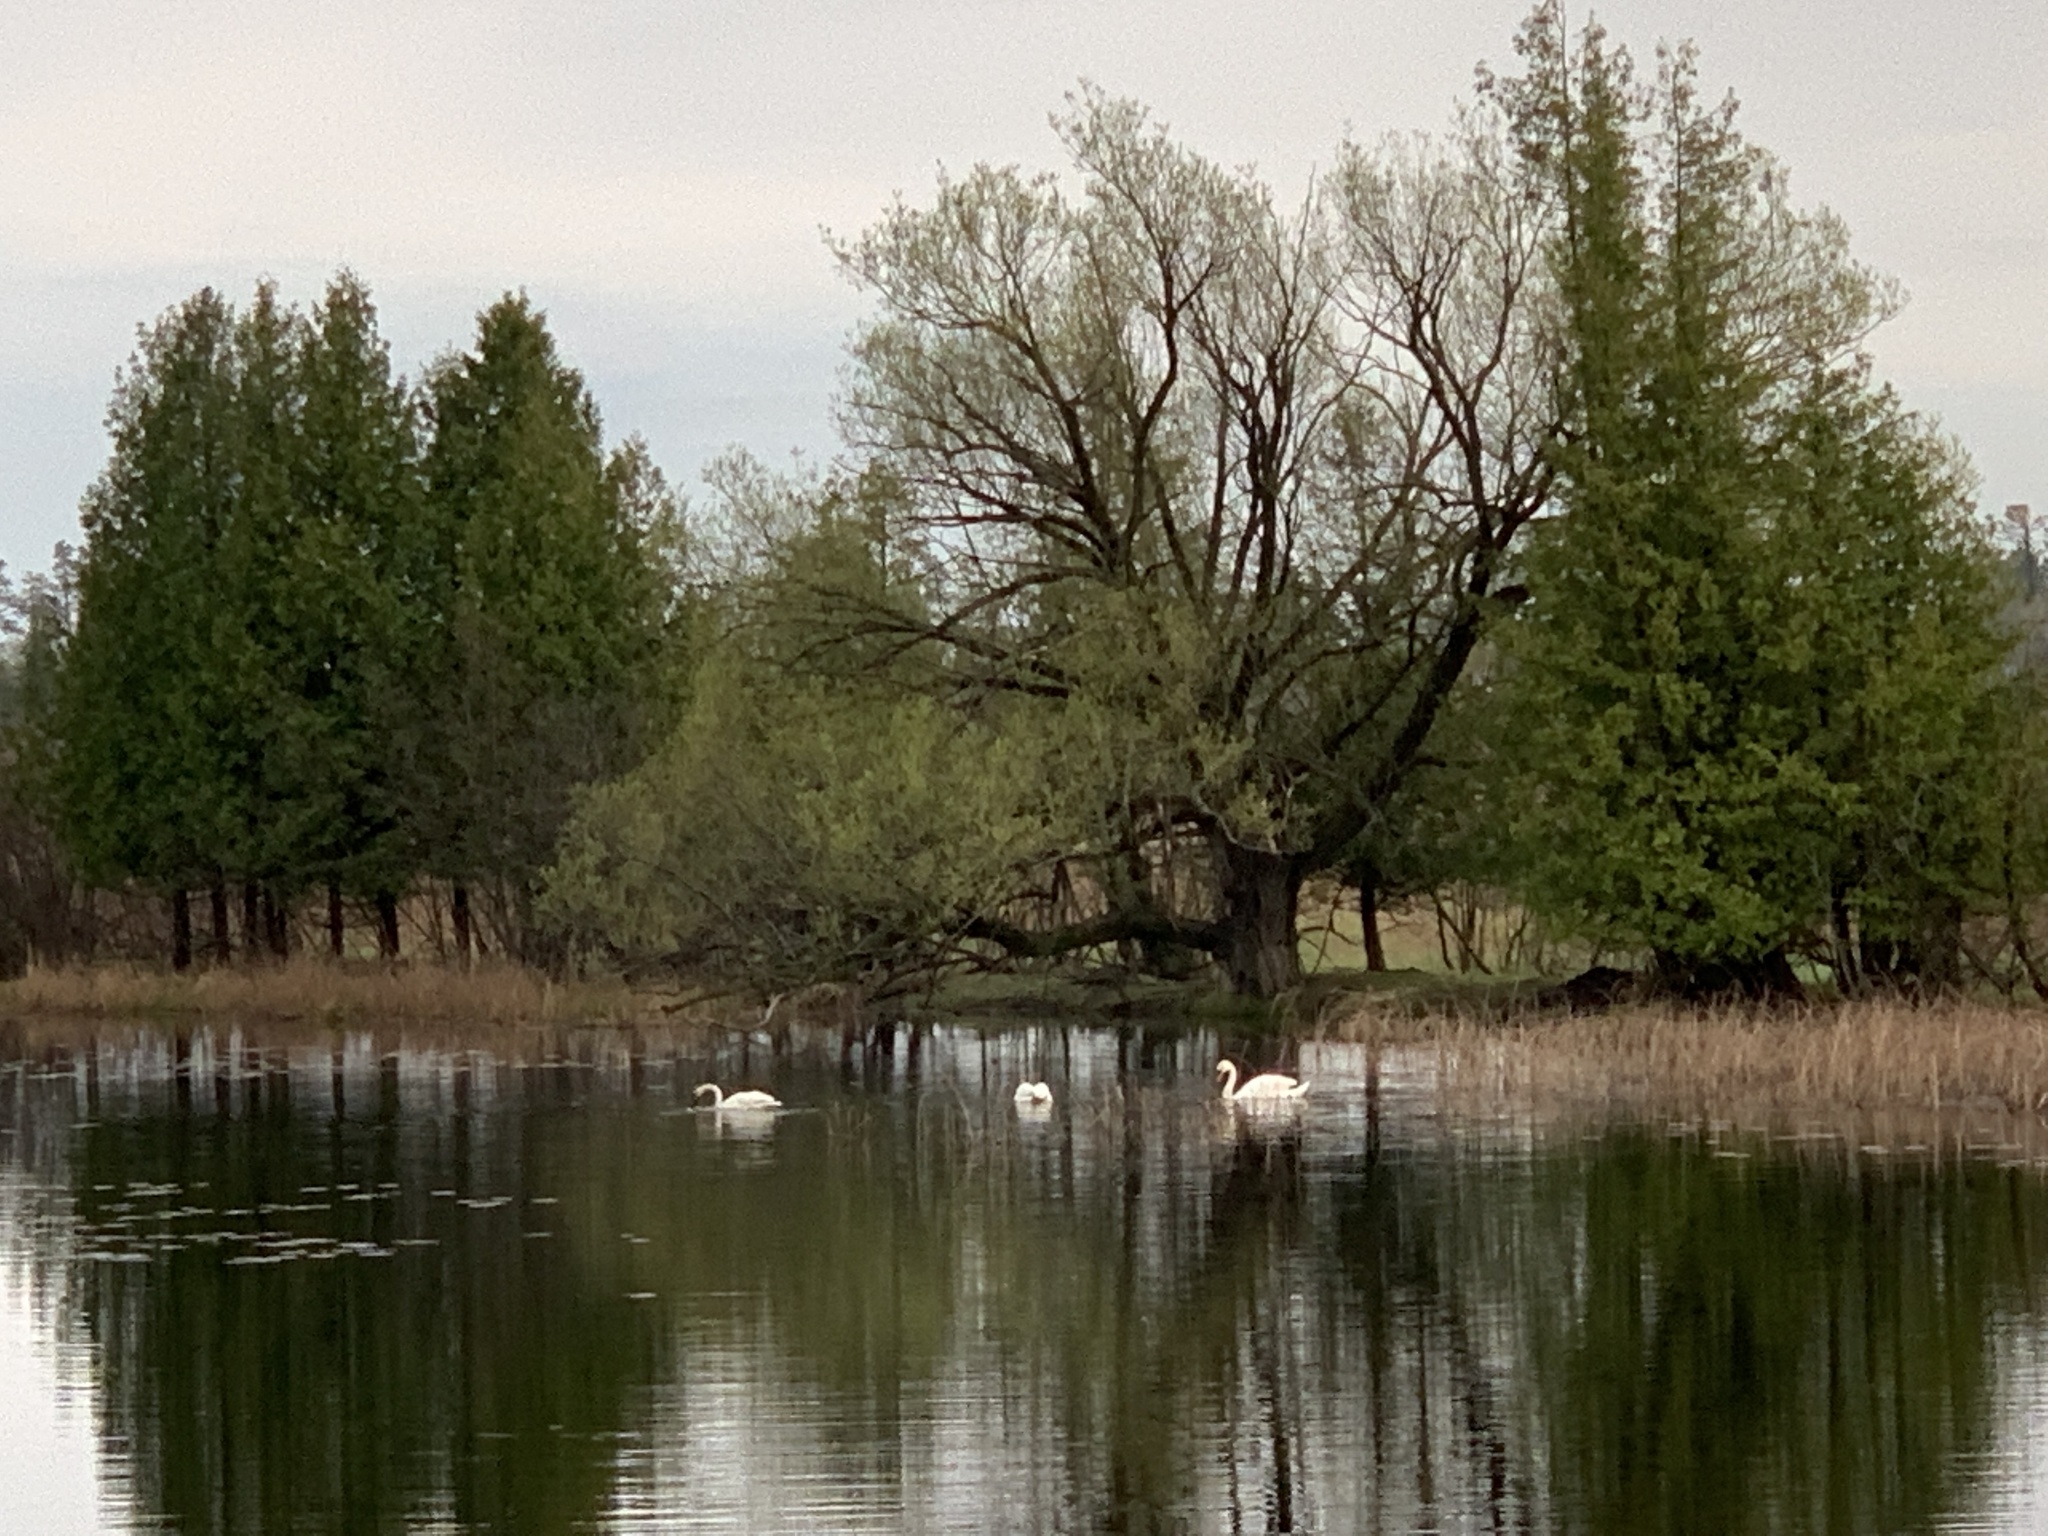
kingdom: Animalia
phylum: Chordata
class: Aves
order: Anseriformes
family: Anatidae
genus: Cygnus
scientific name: Cygnus buccinator
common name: Trumpeter swan
